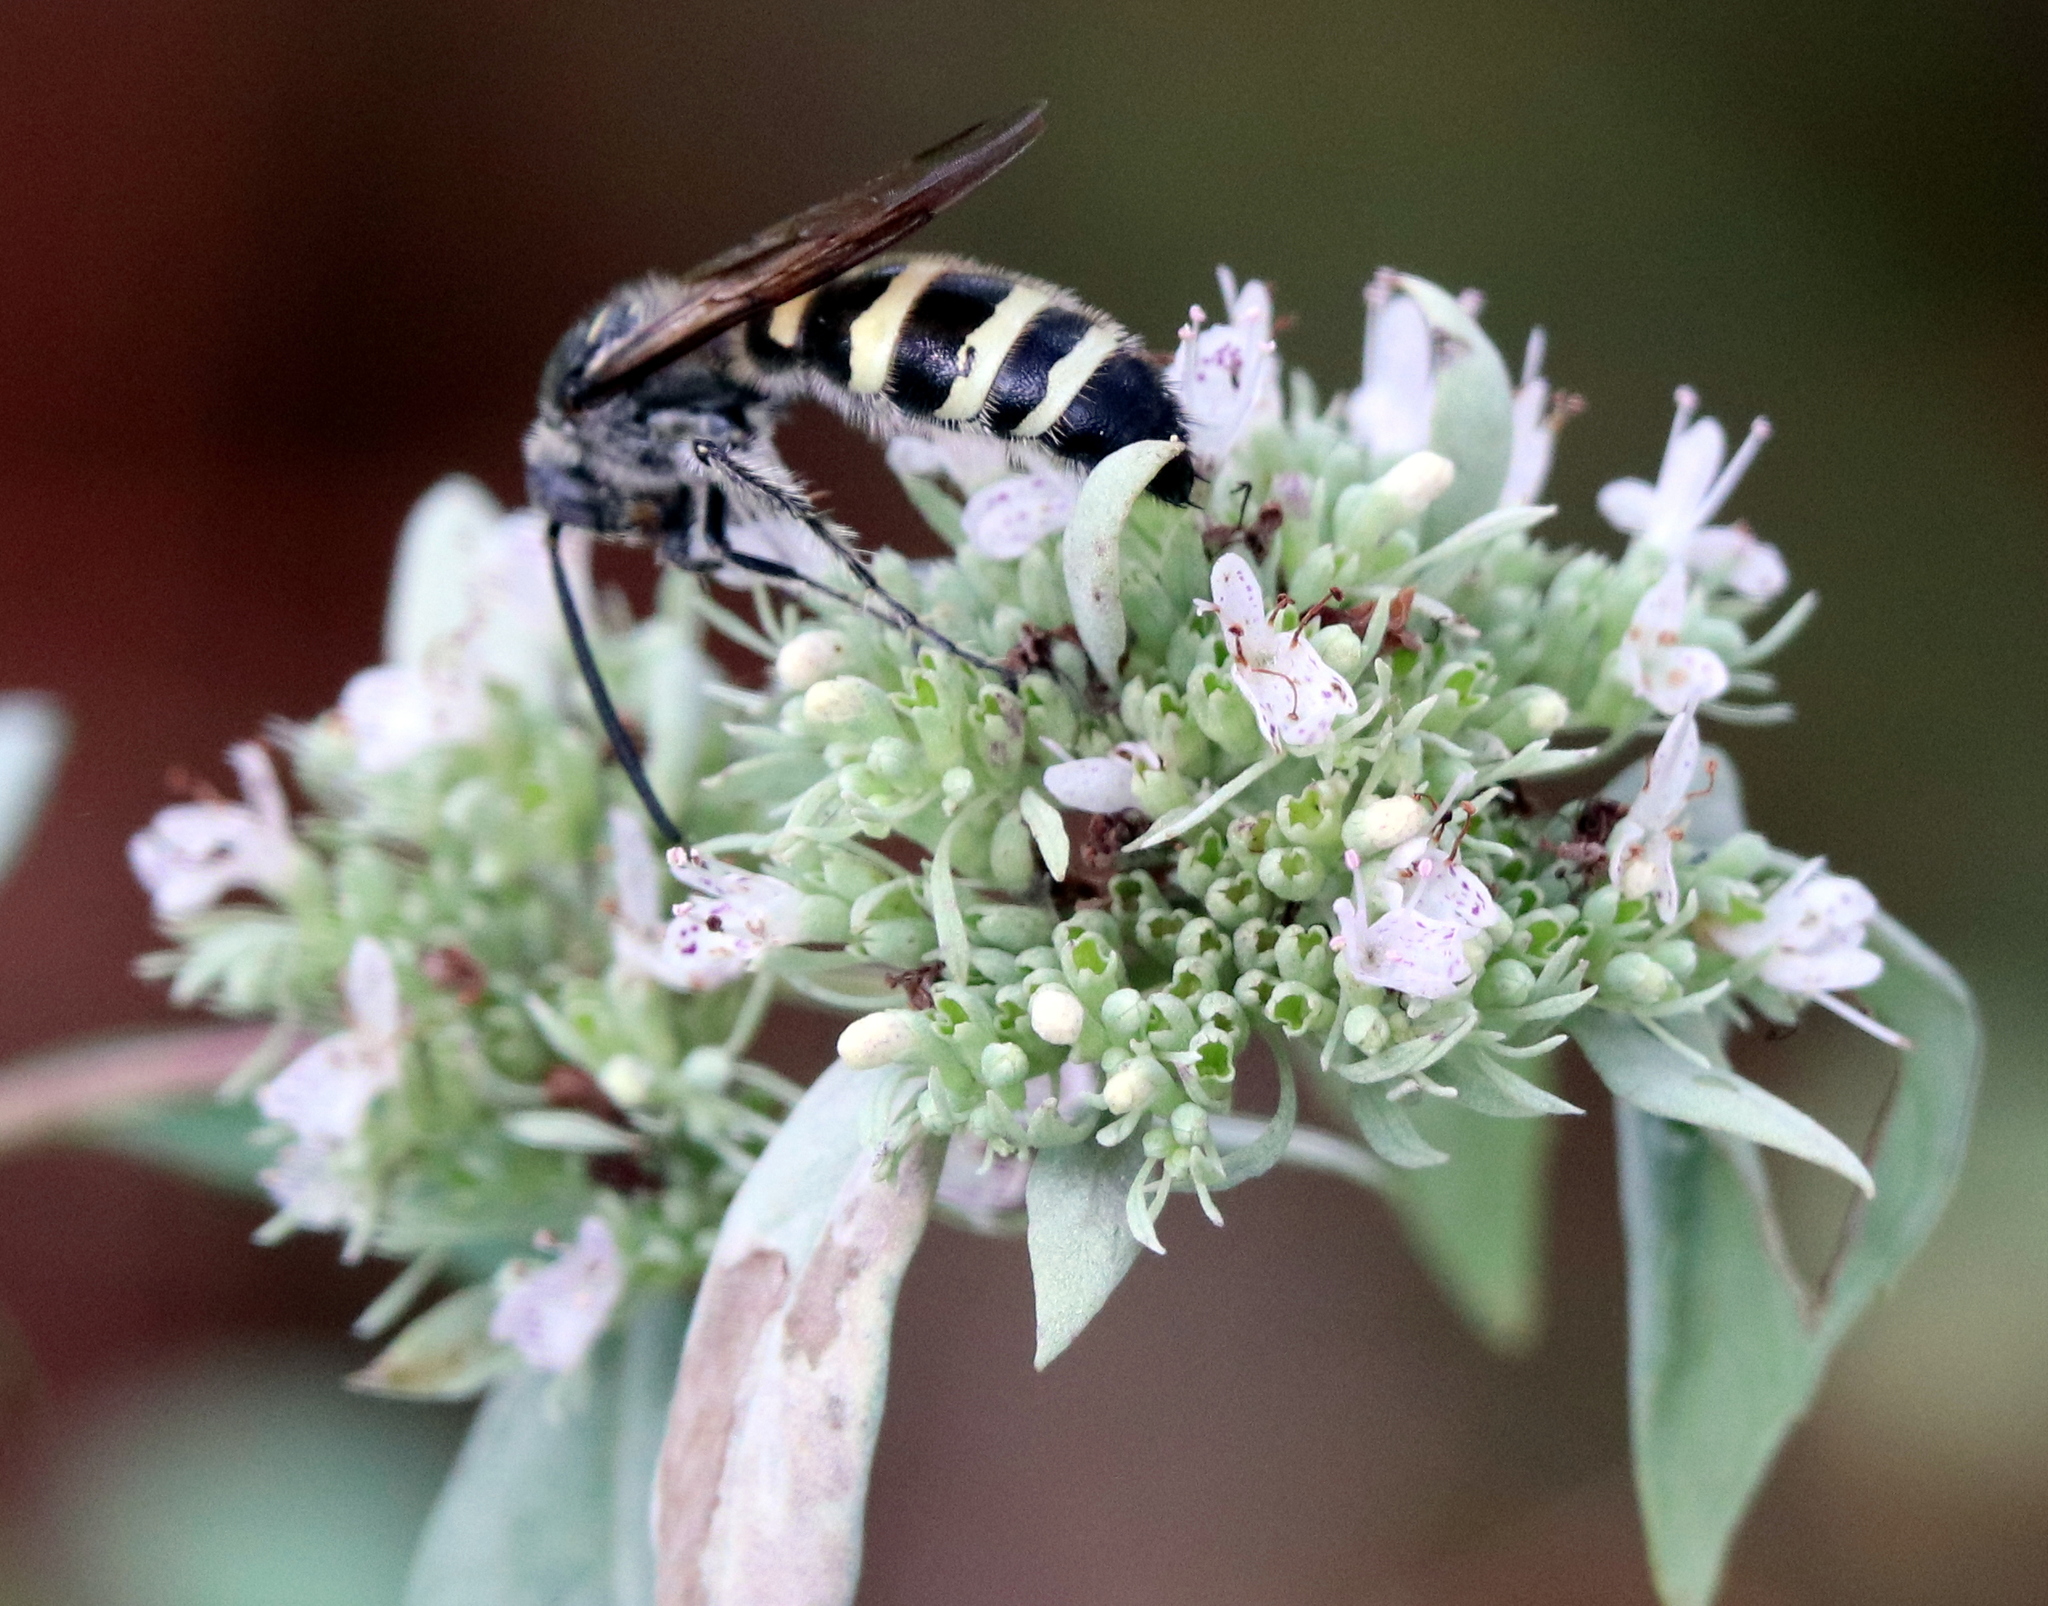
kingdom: Animalia
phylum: Arthropoda
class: Insecta
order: Hymenoptera
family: Scoliidae
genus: Dielis
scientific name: Dielis
